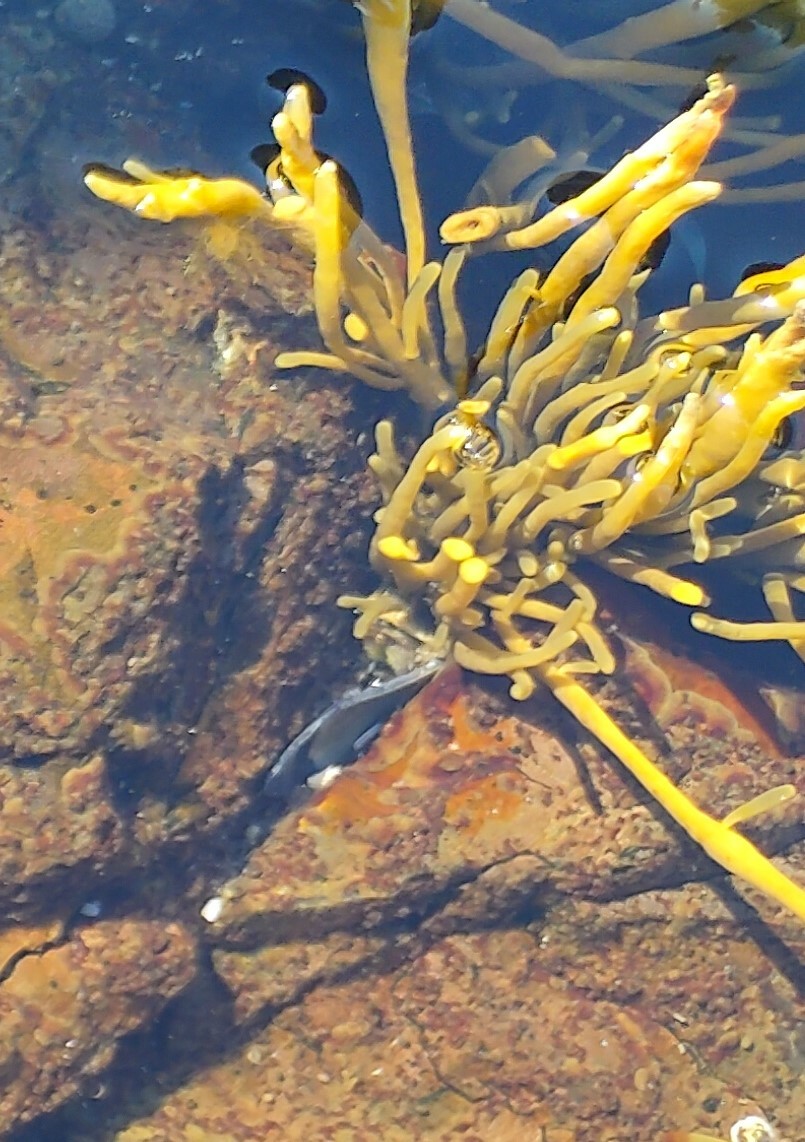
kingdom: Chromista
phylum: Ochrophyta
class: Phaeophyceae
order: Fucales
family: Fucaceae
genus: Ascophyllum
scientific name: Ascophyllum nodosum
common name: Knotted wrack
